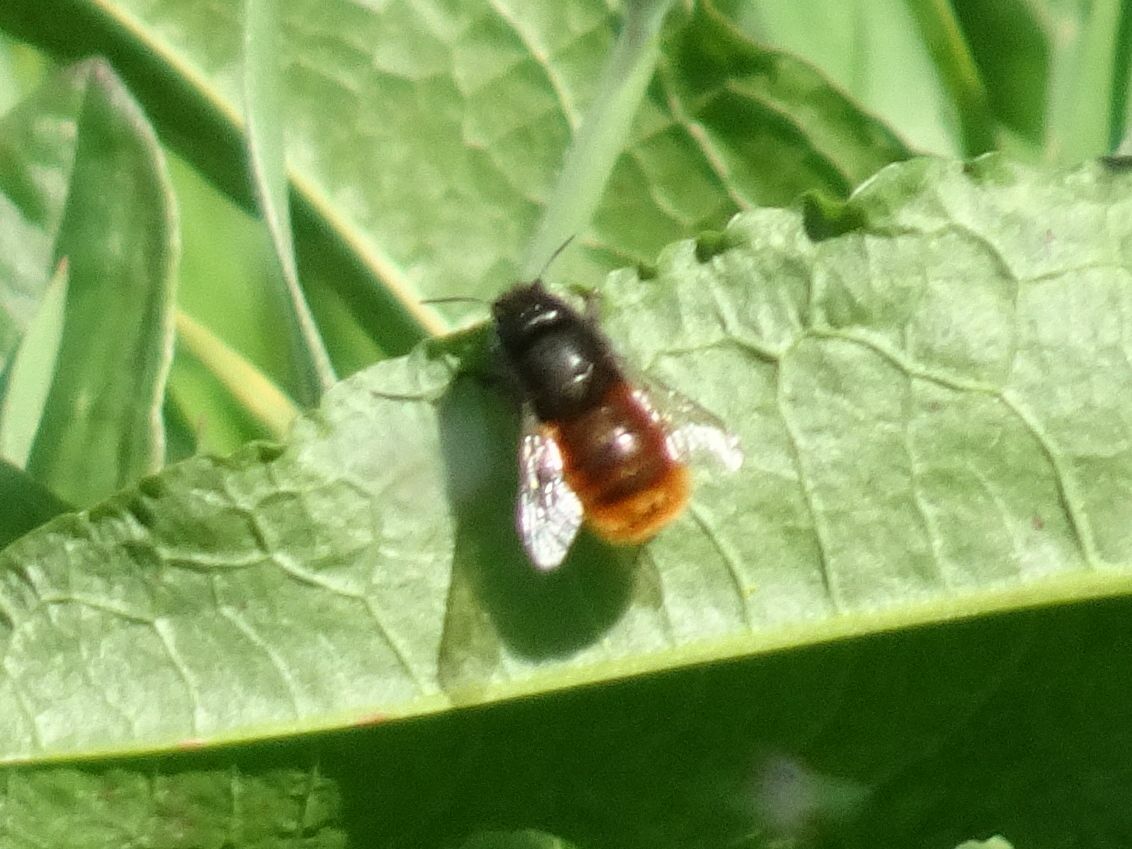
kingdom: Animalia
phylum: Arthropoda
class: Insecta
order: Hymenoptera
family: Megachilidae
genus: Osmia
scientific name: Osmia cornuta
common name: Mason bee
